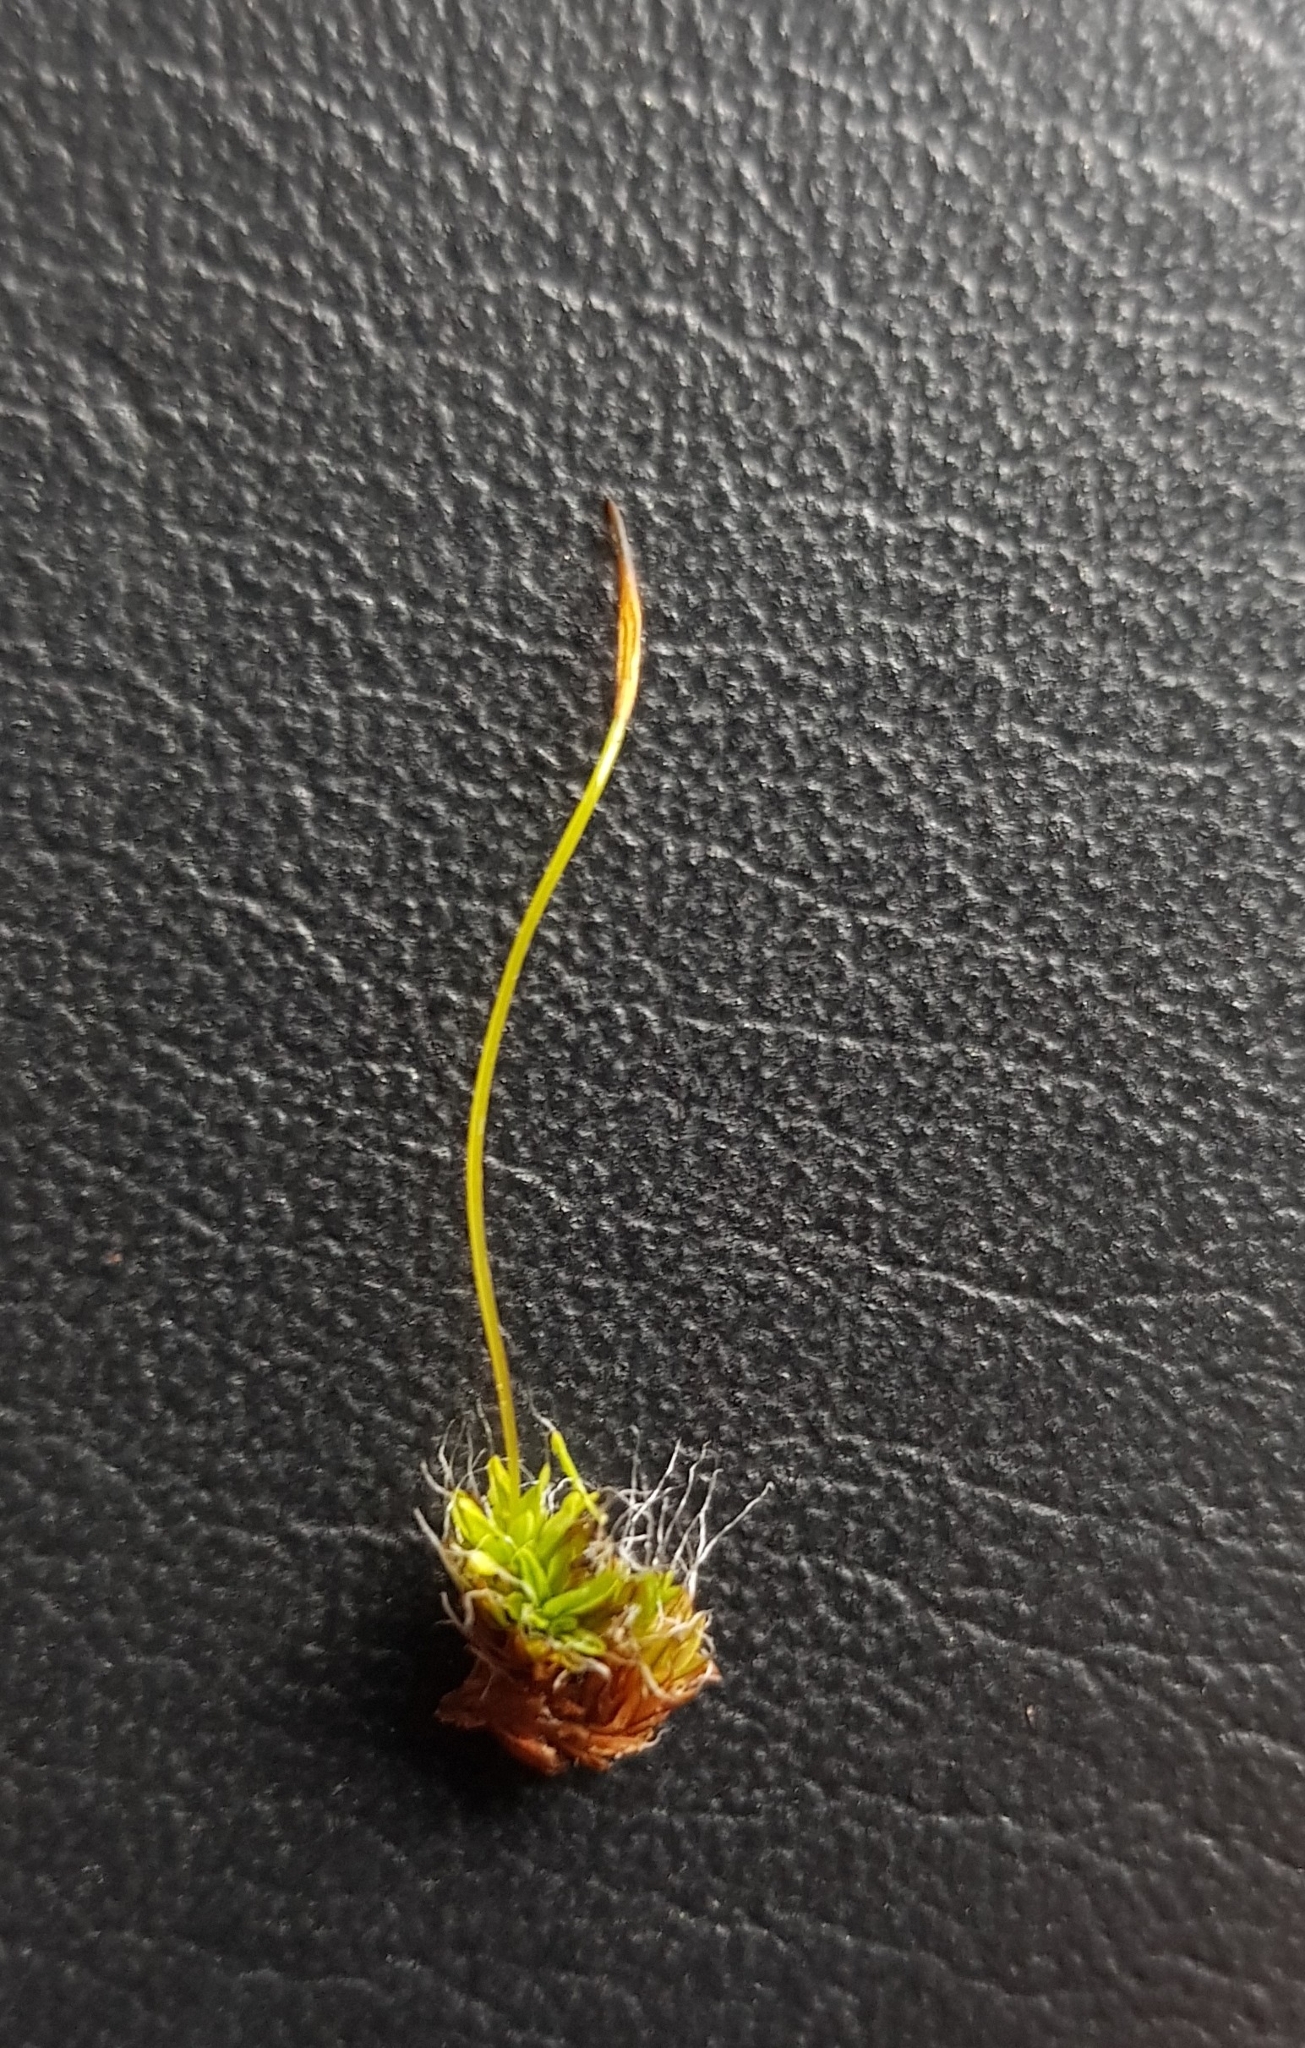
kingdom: Plantae
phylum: Bryophyta
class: Bryopsida
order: Pottiales
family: Pottiaceae
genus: Tortula
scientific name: Tortula muralis
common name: Wall screw-moss
